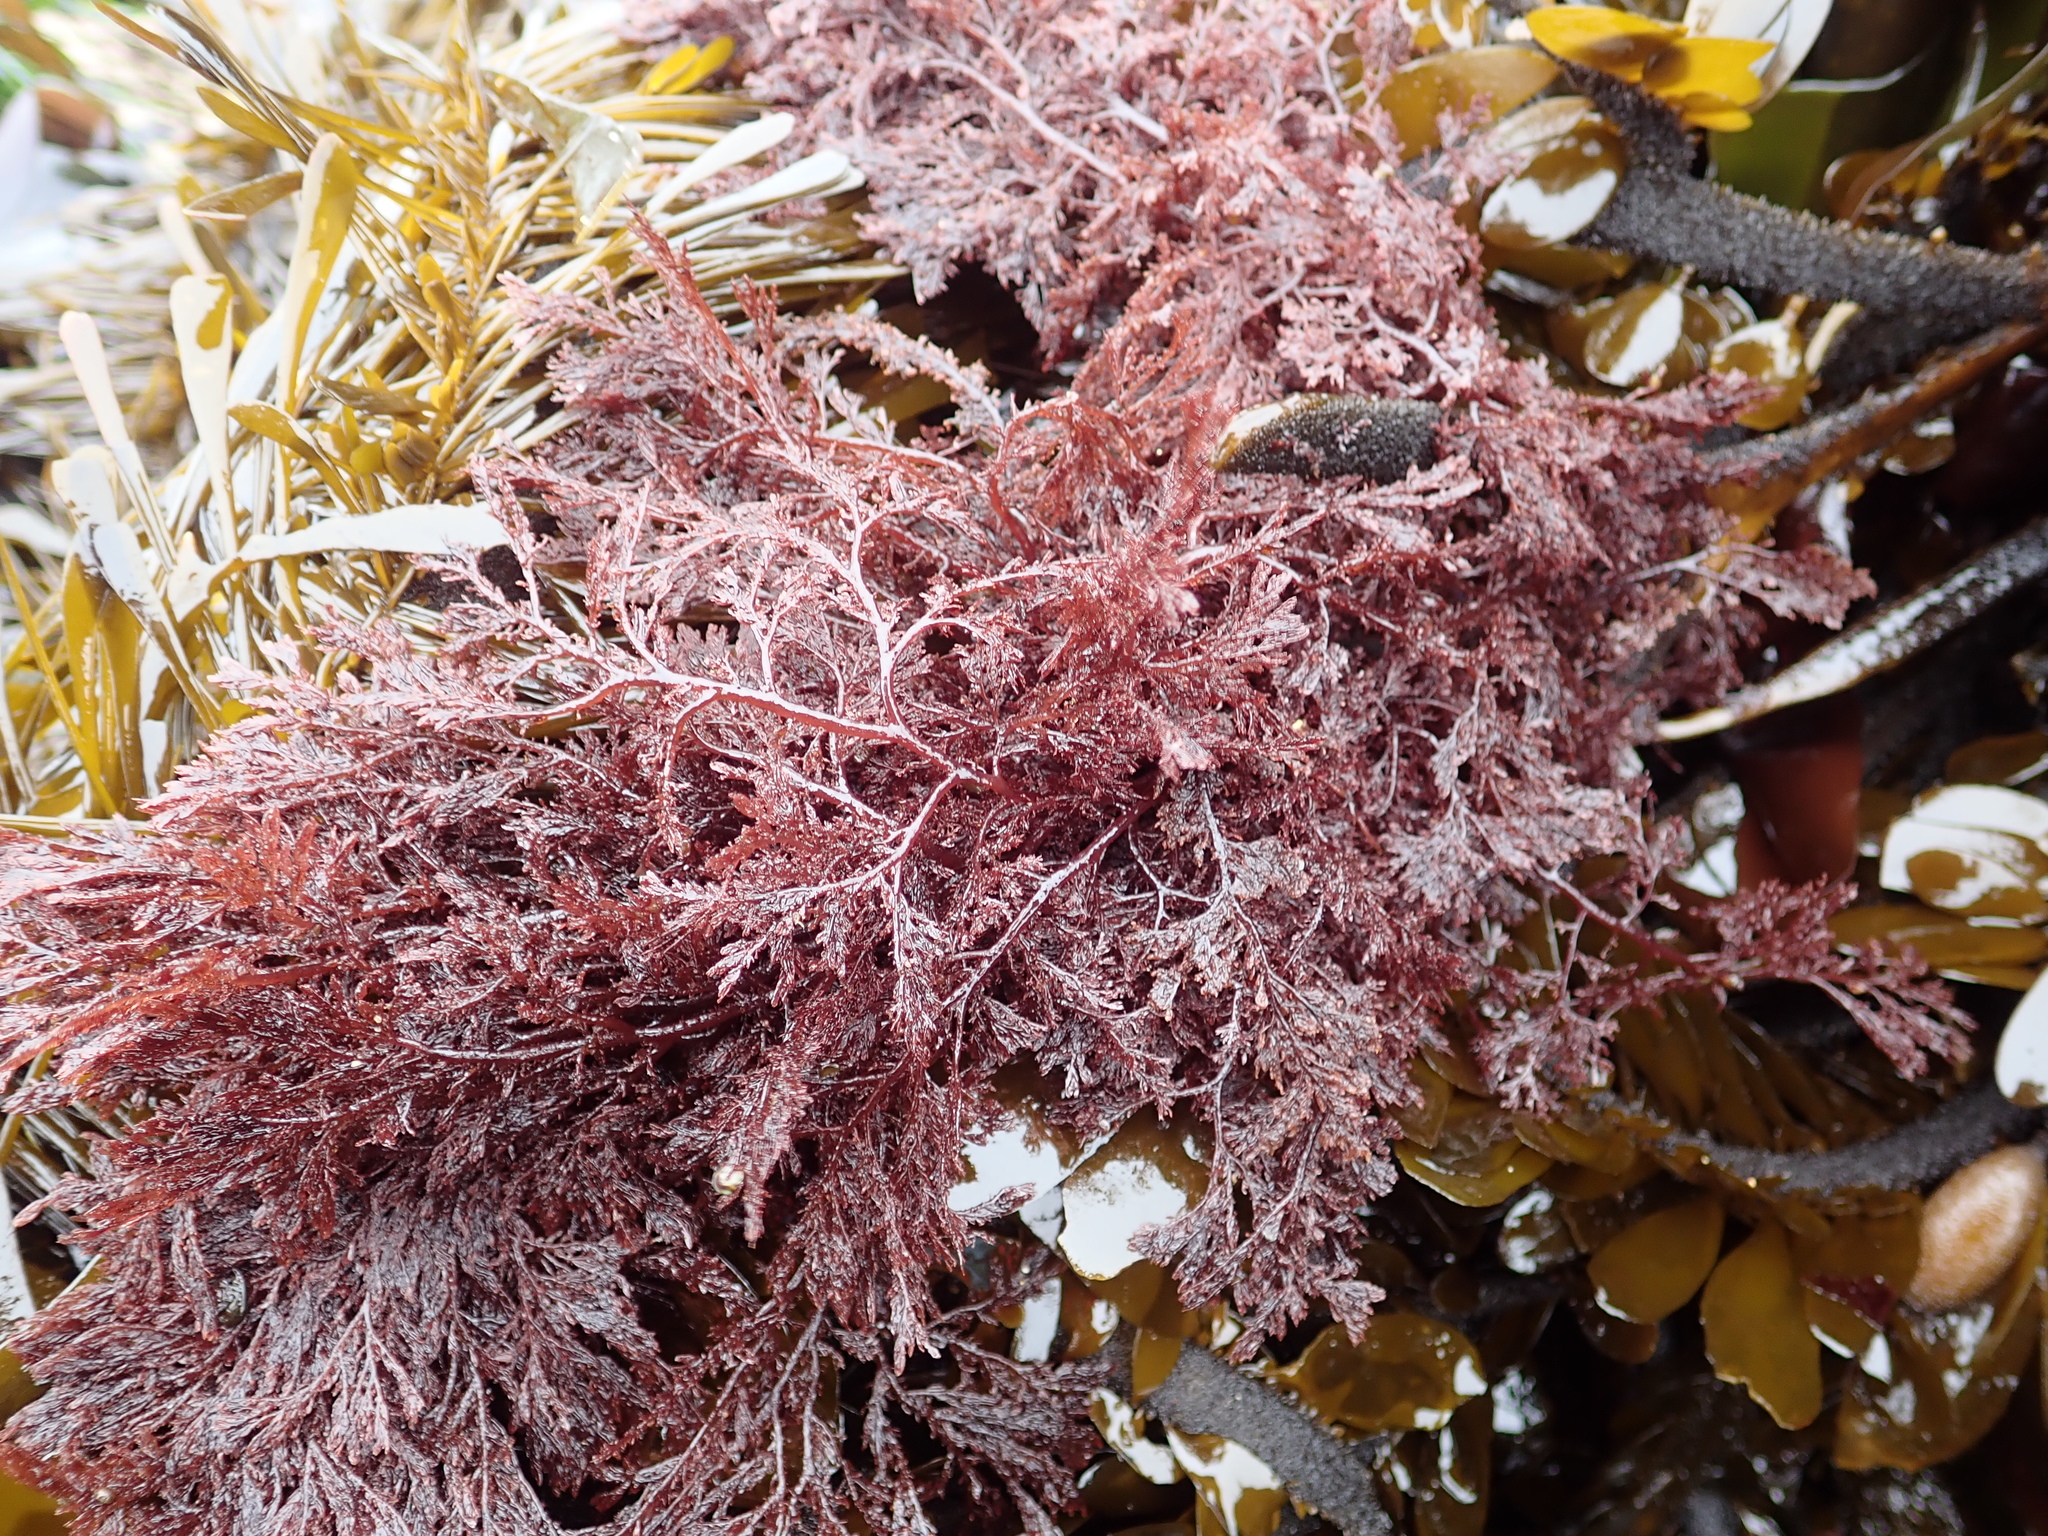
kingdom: Plantae
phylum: Rhodophyta
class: Florideophyceae
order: Ceramiales
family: Ceramiaceae
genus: Microcladia
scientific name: Microcladia coulteri
